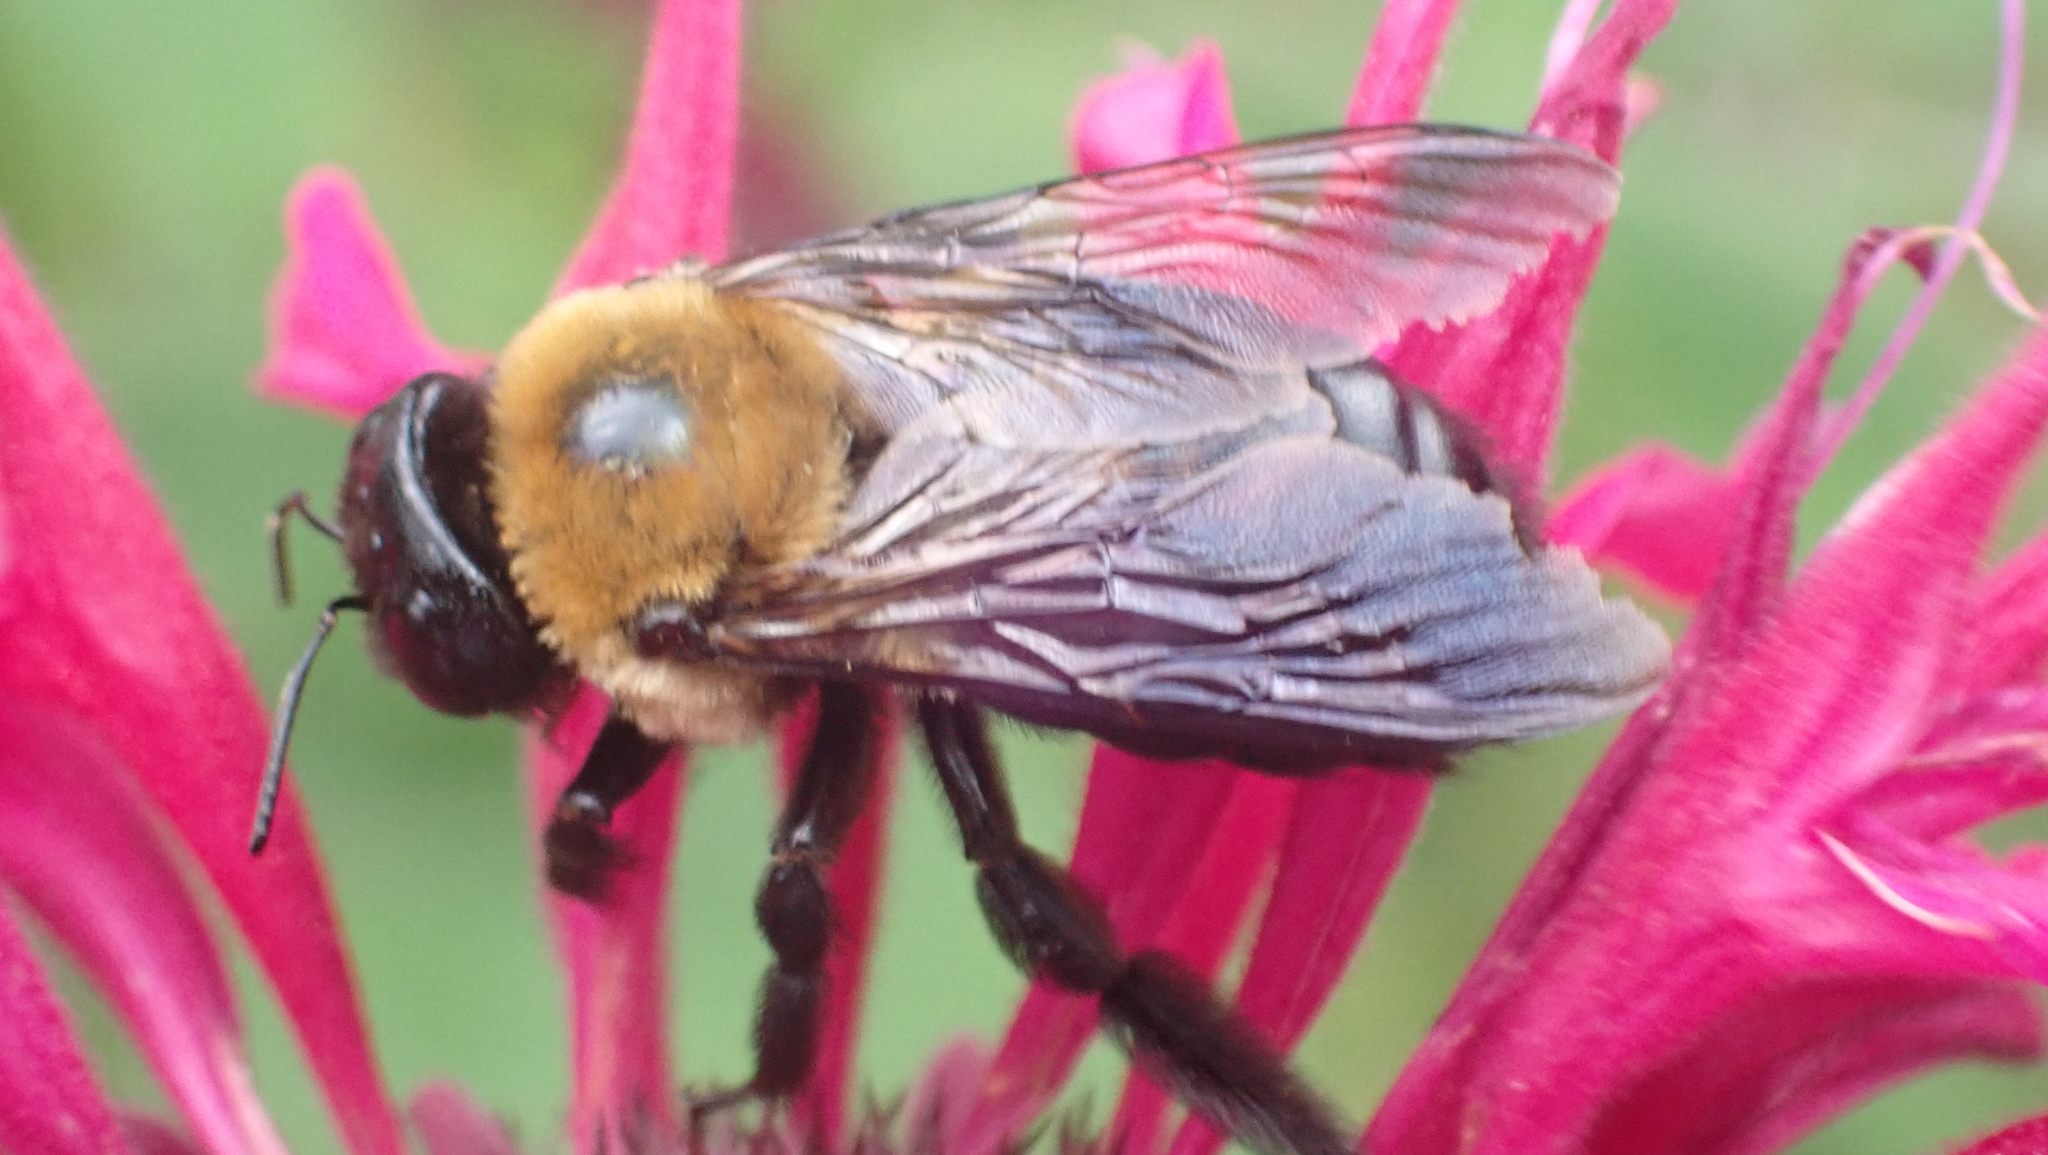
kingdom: Animalia
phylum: Arthropoda
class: Insecta
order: Hymenoptera
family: Apidae
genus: Xylocopa
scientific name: Xylocopa virginica
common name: Carpenter bee
